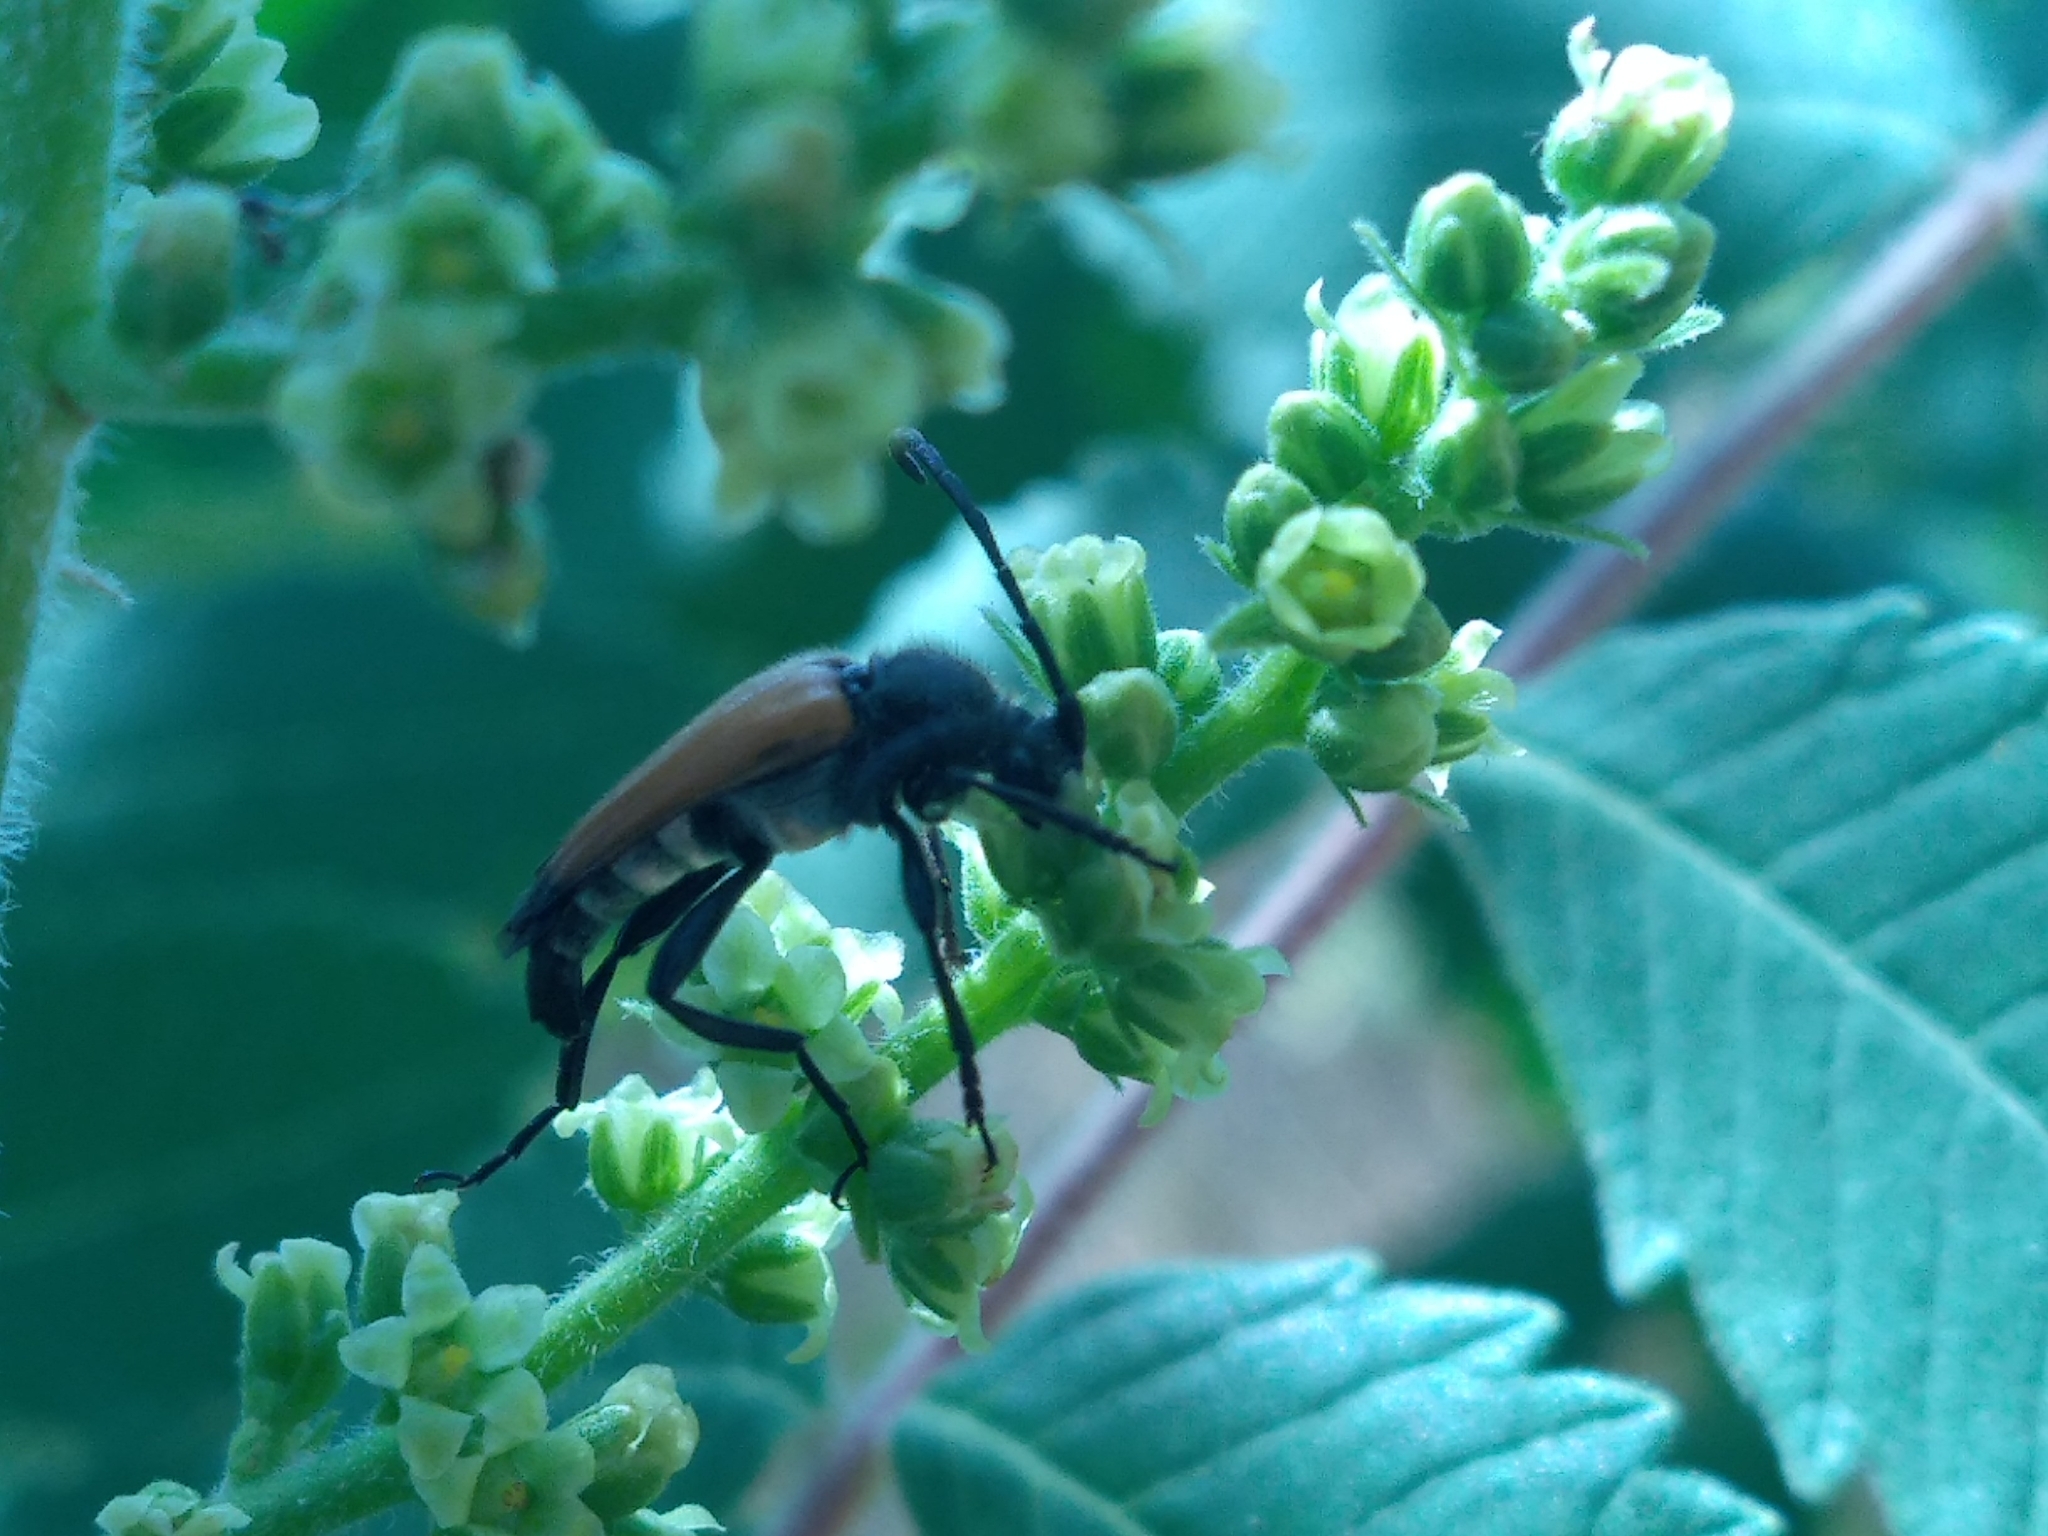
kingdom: Animalia
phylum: Arthropoda
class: Insecta
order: Coleoptera
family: Cerambycidae
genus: Paracorymbia
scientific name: Paracorymbia fulva
